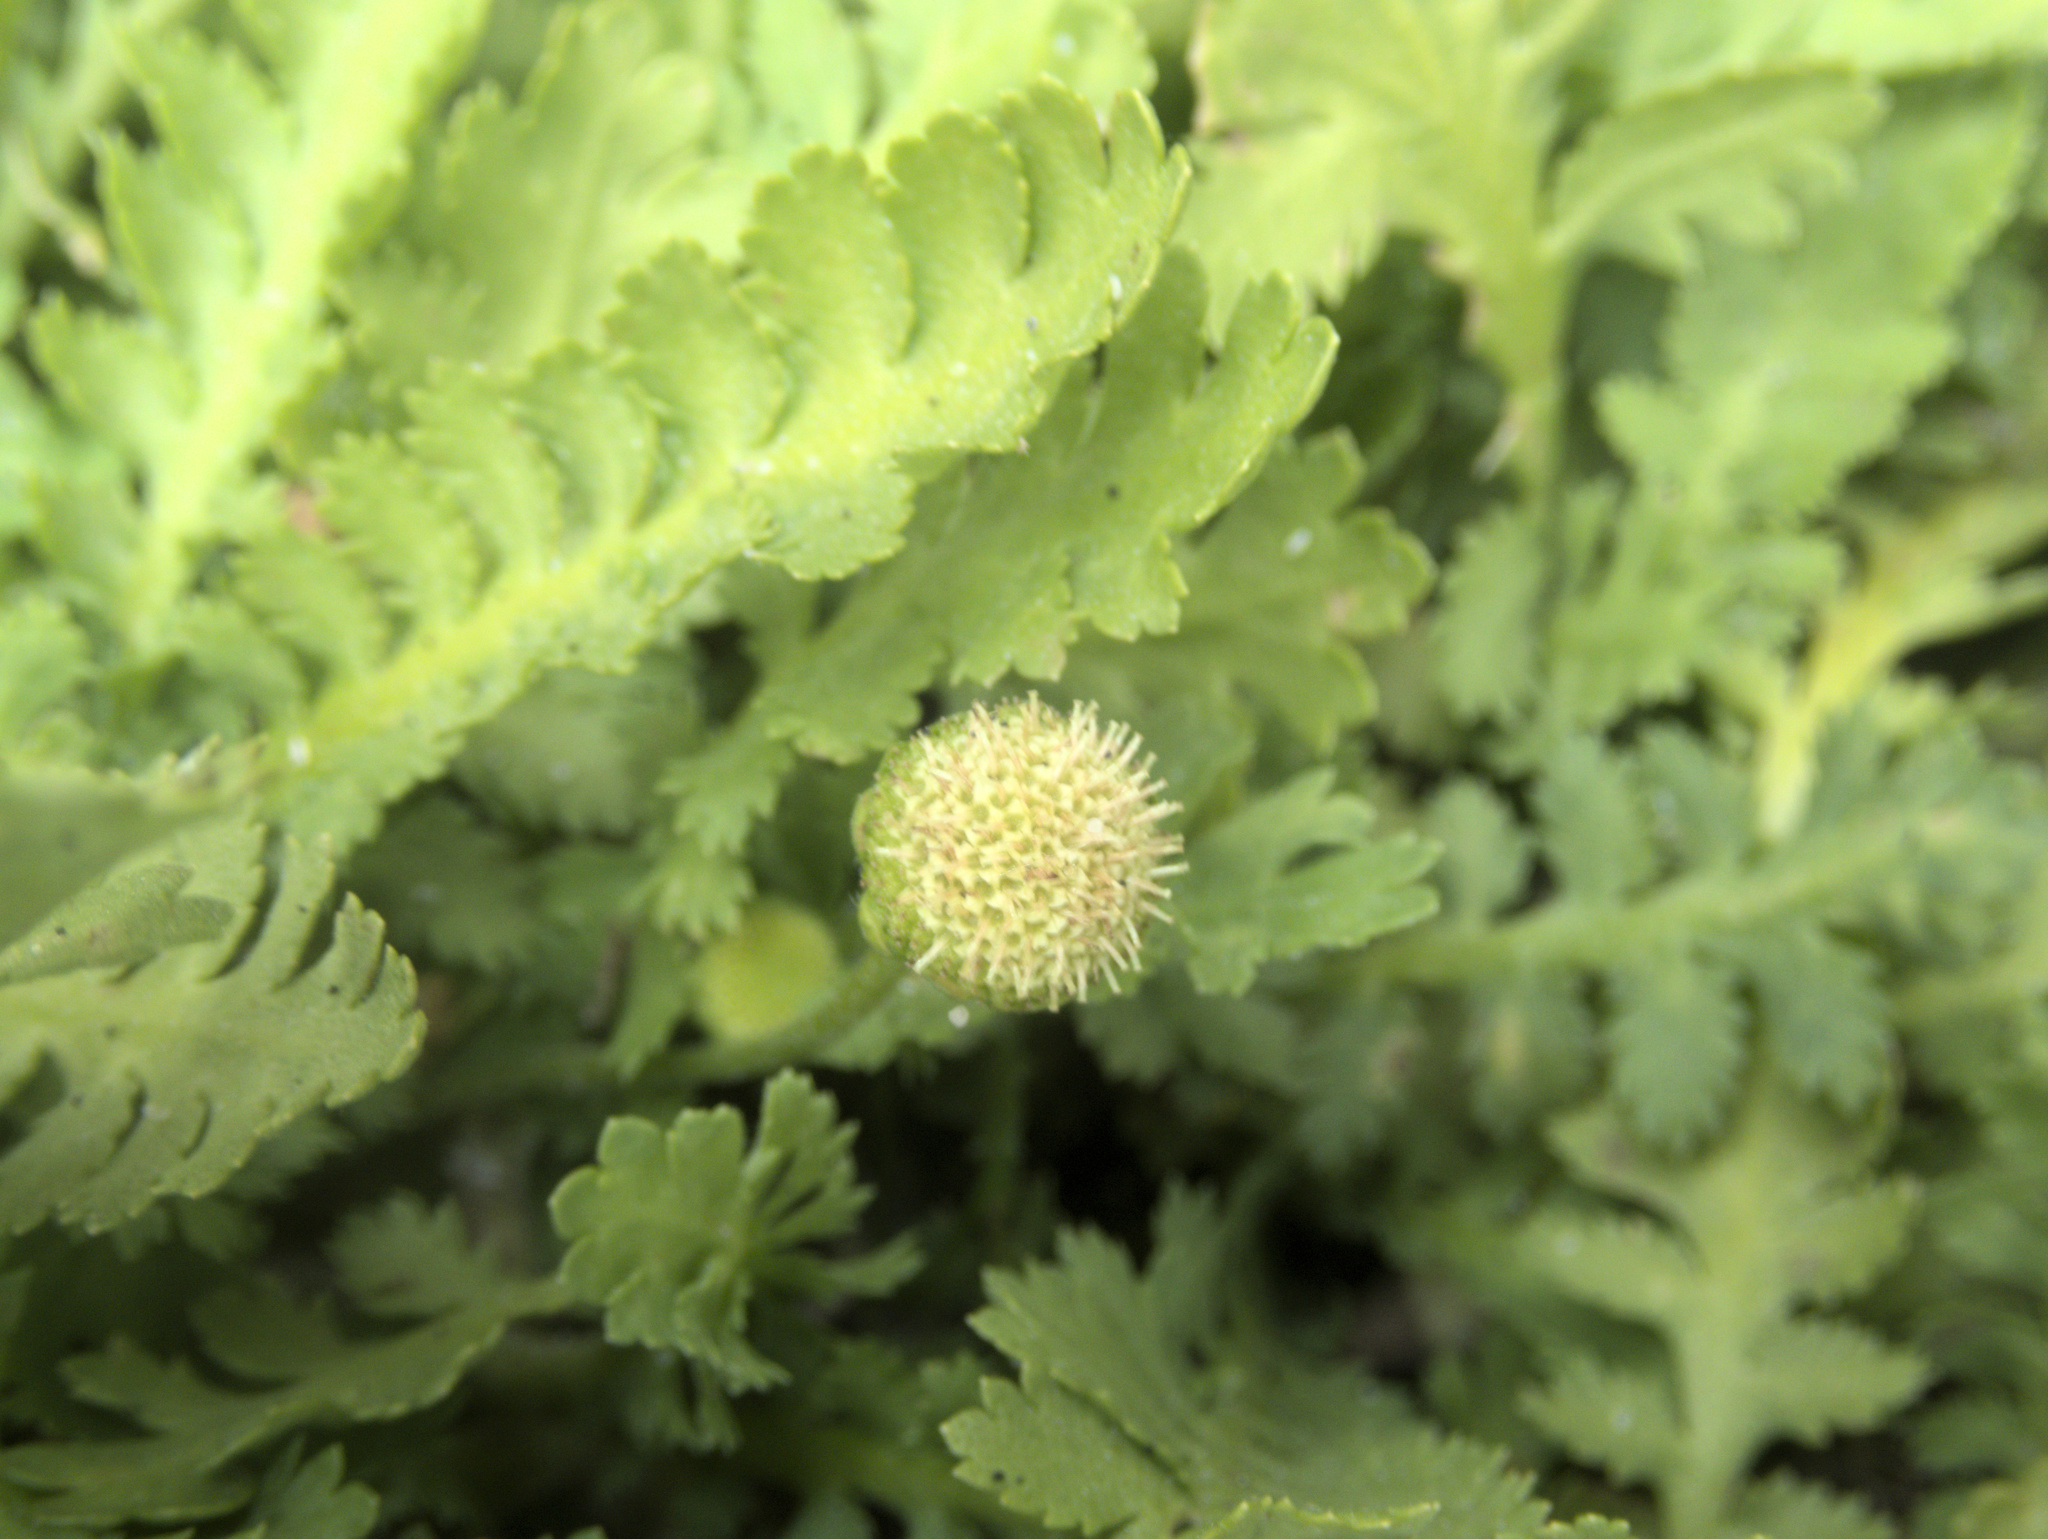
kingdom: Plantae
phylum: Tracheophyta
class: Magnoliopsida
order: Asterales
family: Asteraceae
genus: Leptinella
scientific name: Leptinella potentillina
